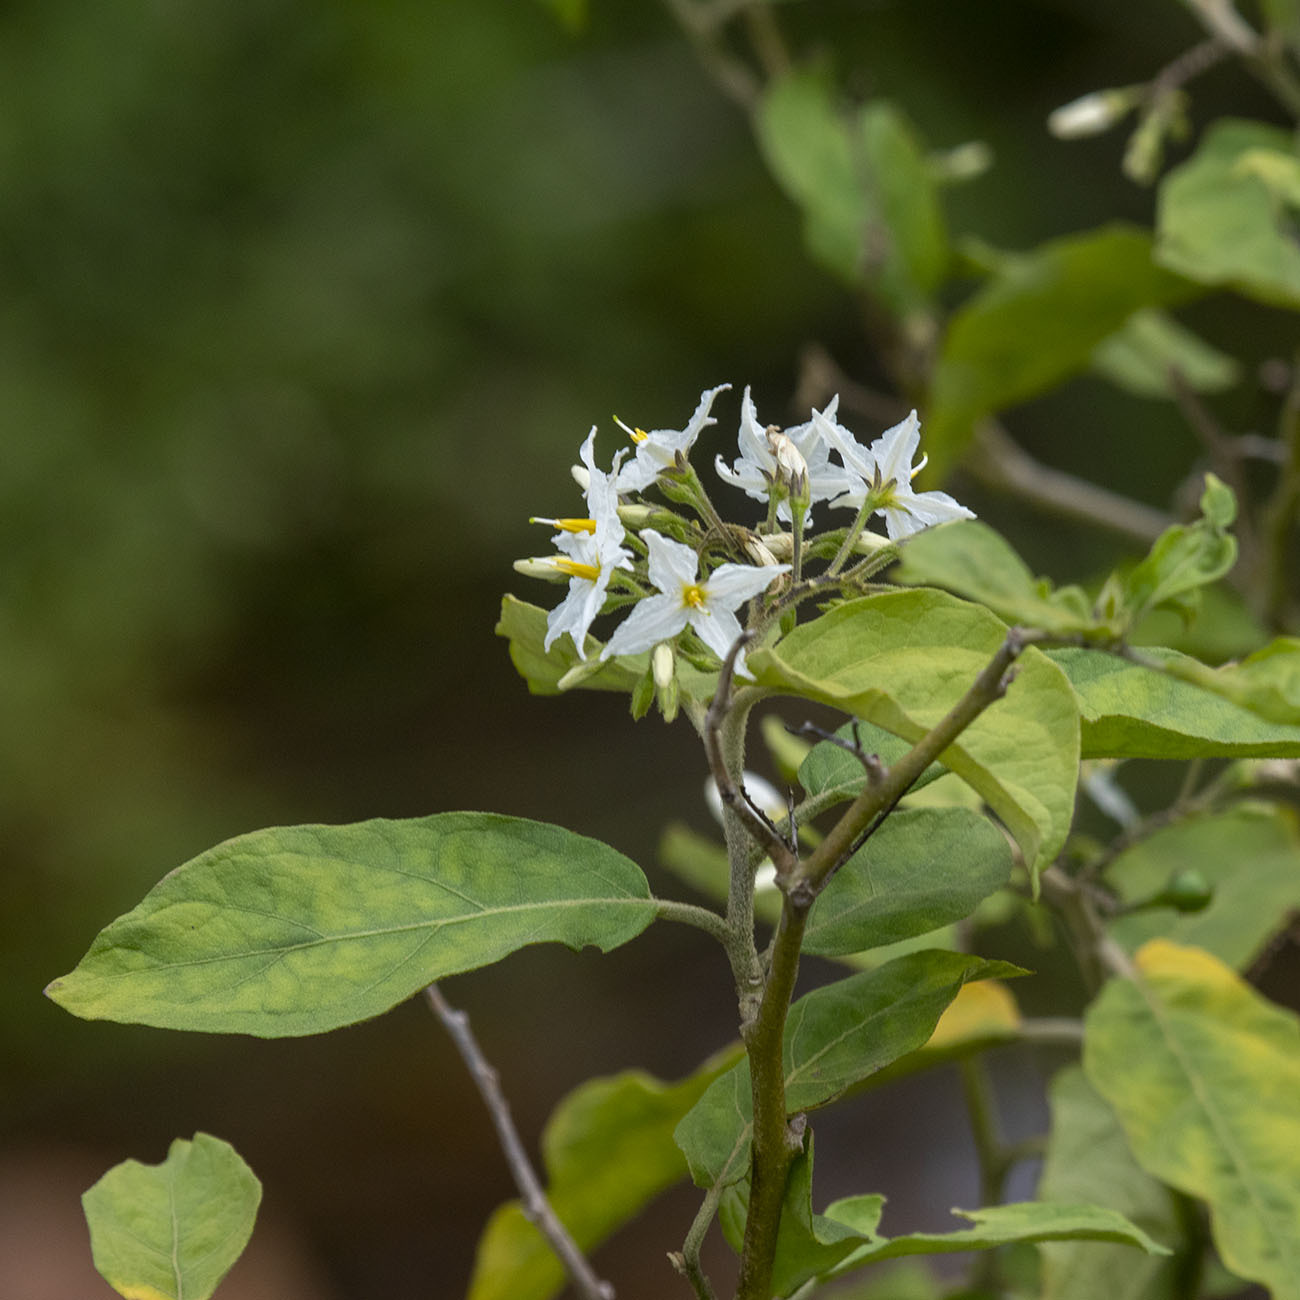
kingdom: Plantae
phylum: Tracheophyta
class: Magnoliopsida
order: Solanales
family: Solanaceae
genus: Solanum
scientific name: Solanum torvum
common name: Turkey berry
